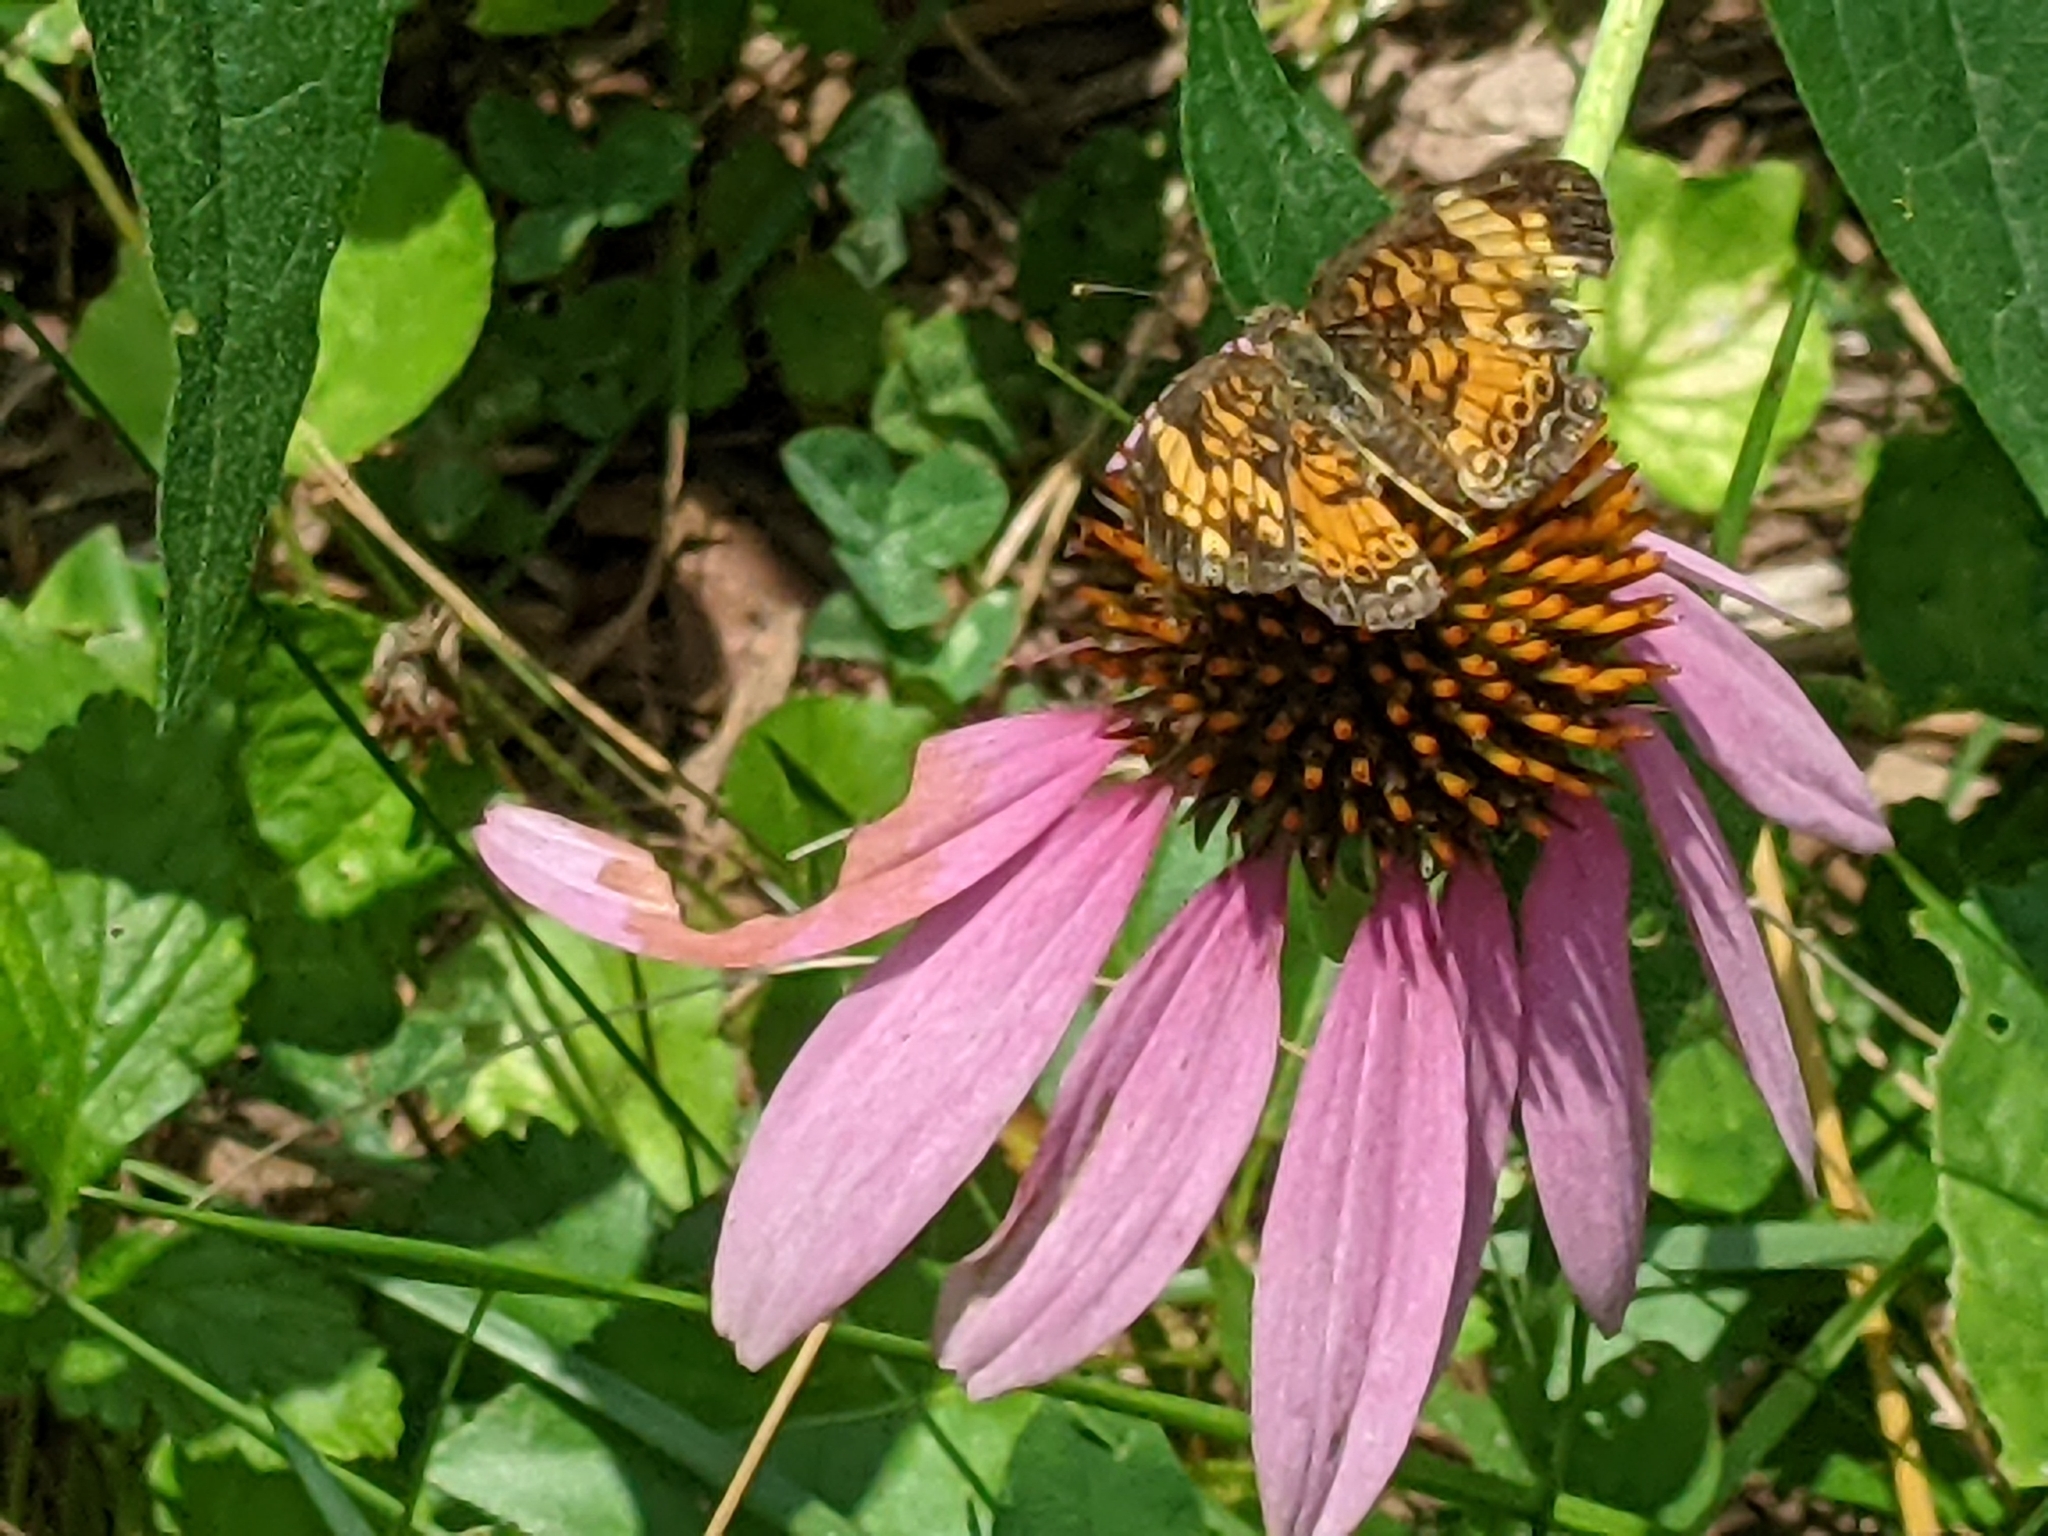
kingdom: Animalia
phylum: Arthropoda
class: Insecta
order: Lepidoptera
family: Nymphalidae
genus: Phyciodes
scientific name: Phyciodes tharos
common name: Pearl crescent
